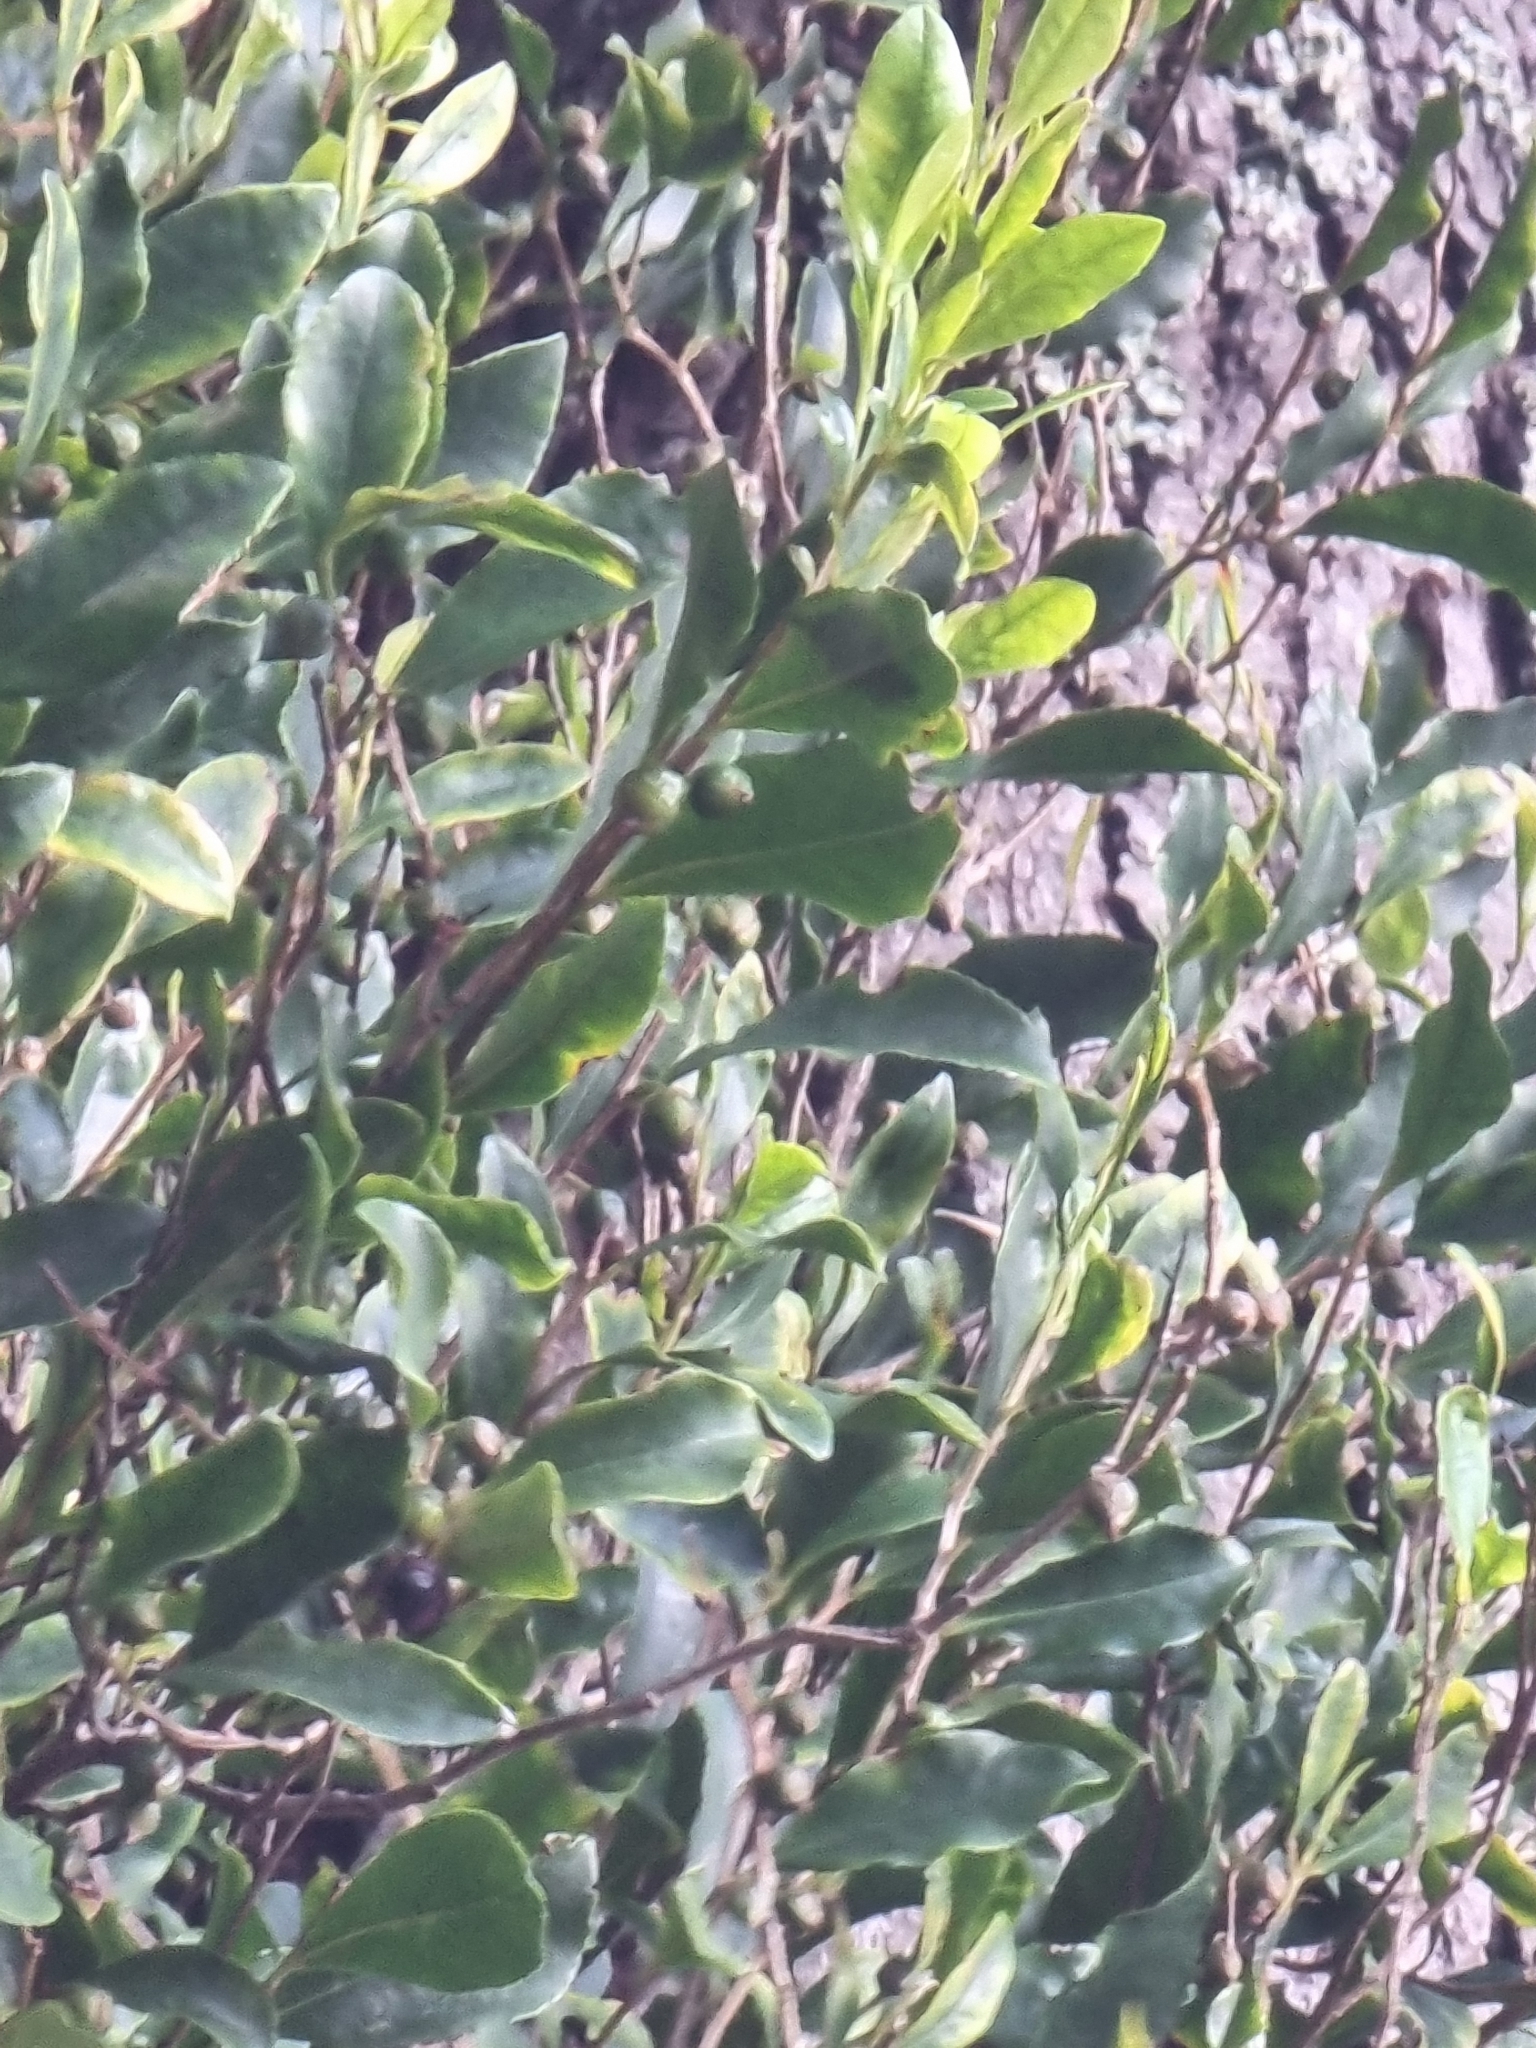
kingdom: Plantae
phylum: Tracheophyta
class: Magnoliopsida
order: Ericales
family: Pentaphylacaceae
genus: Visnea
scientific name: Visnea mocanera
